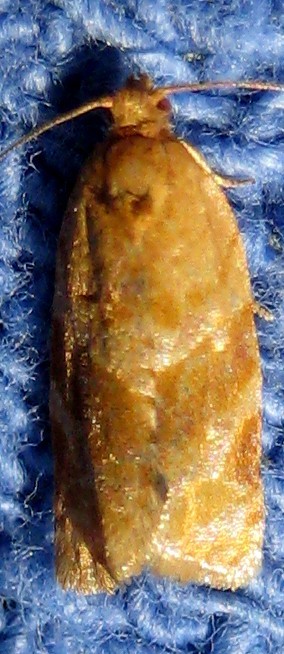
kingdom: Animalia
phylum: Arthropoda
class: Insecta
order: Lepidoptera
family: Tortricidae
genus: Argyrotaenia
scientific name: Argyrotaenia pinatubana
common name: Pine tube moth
